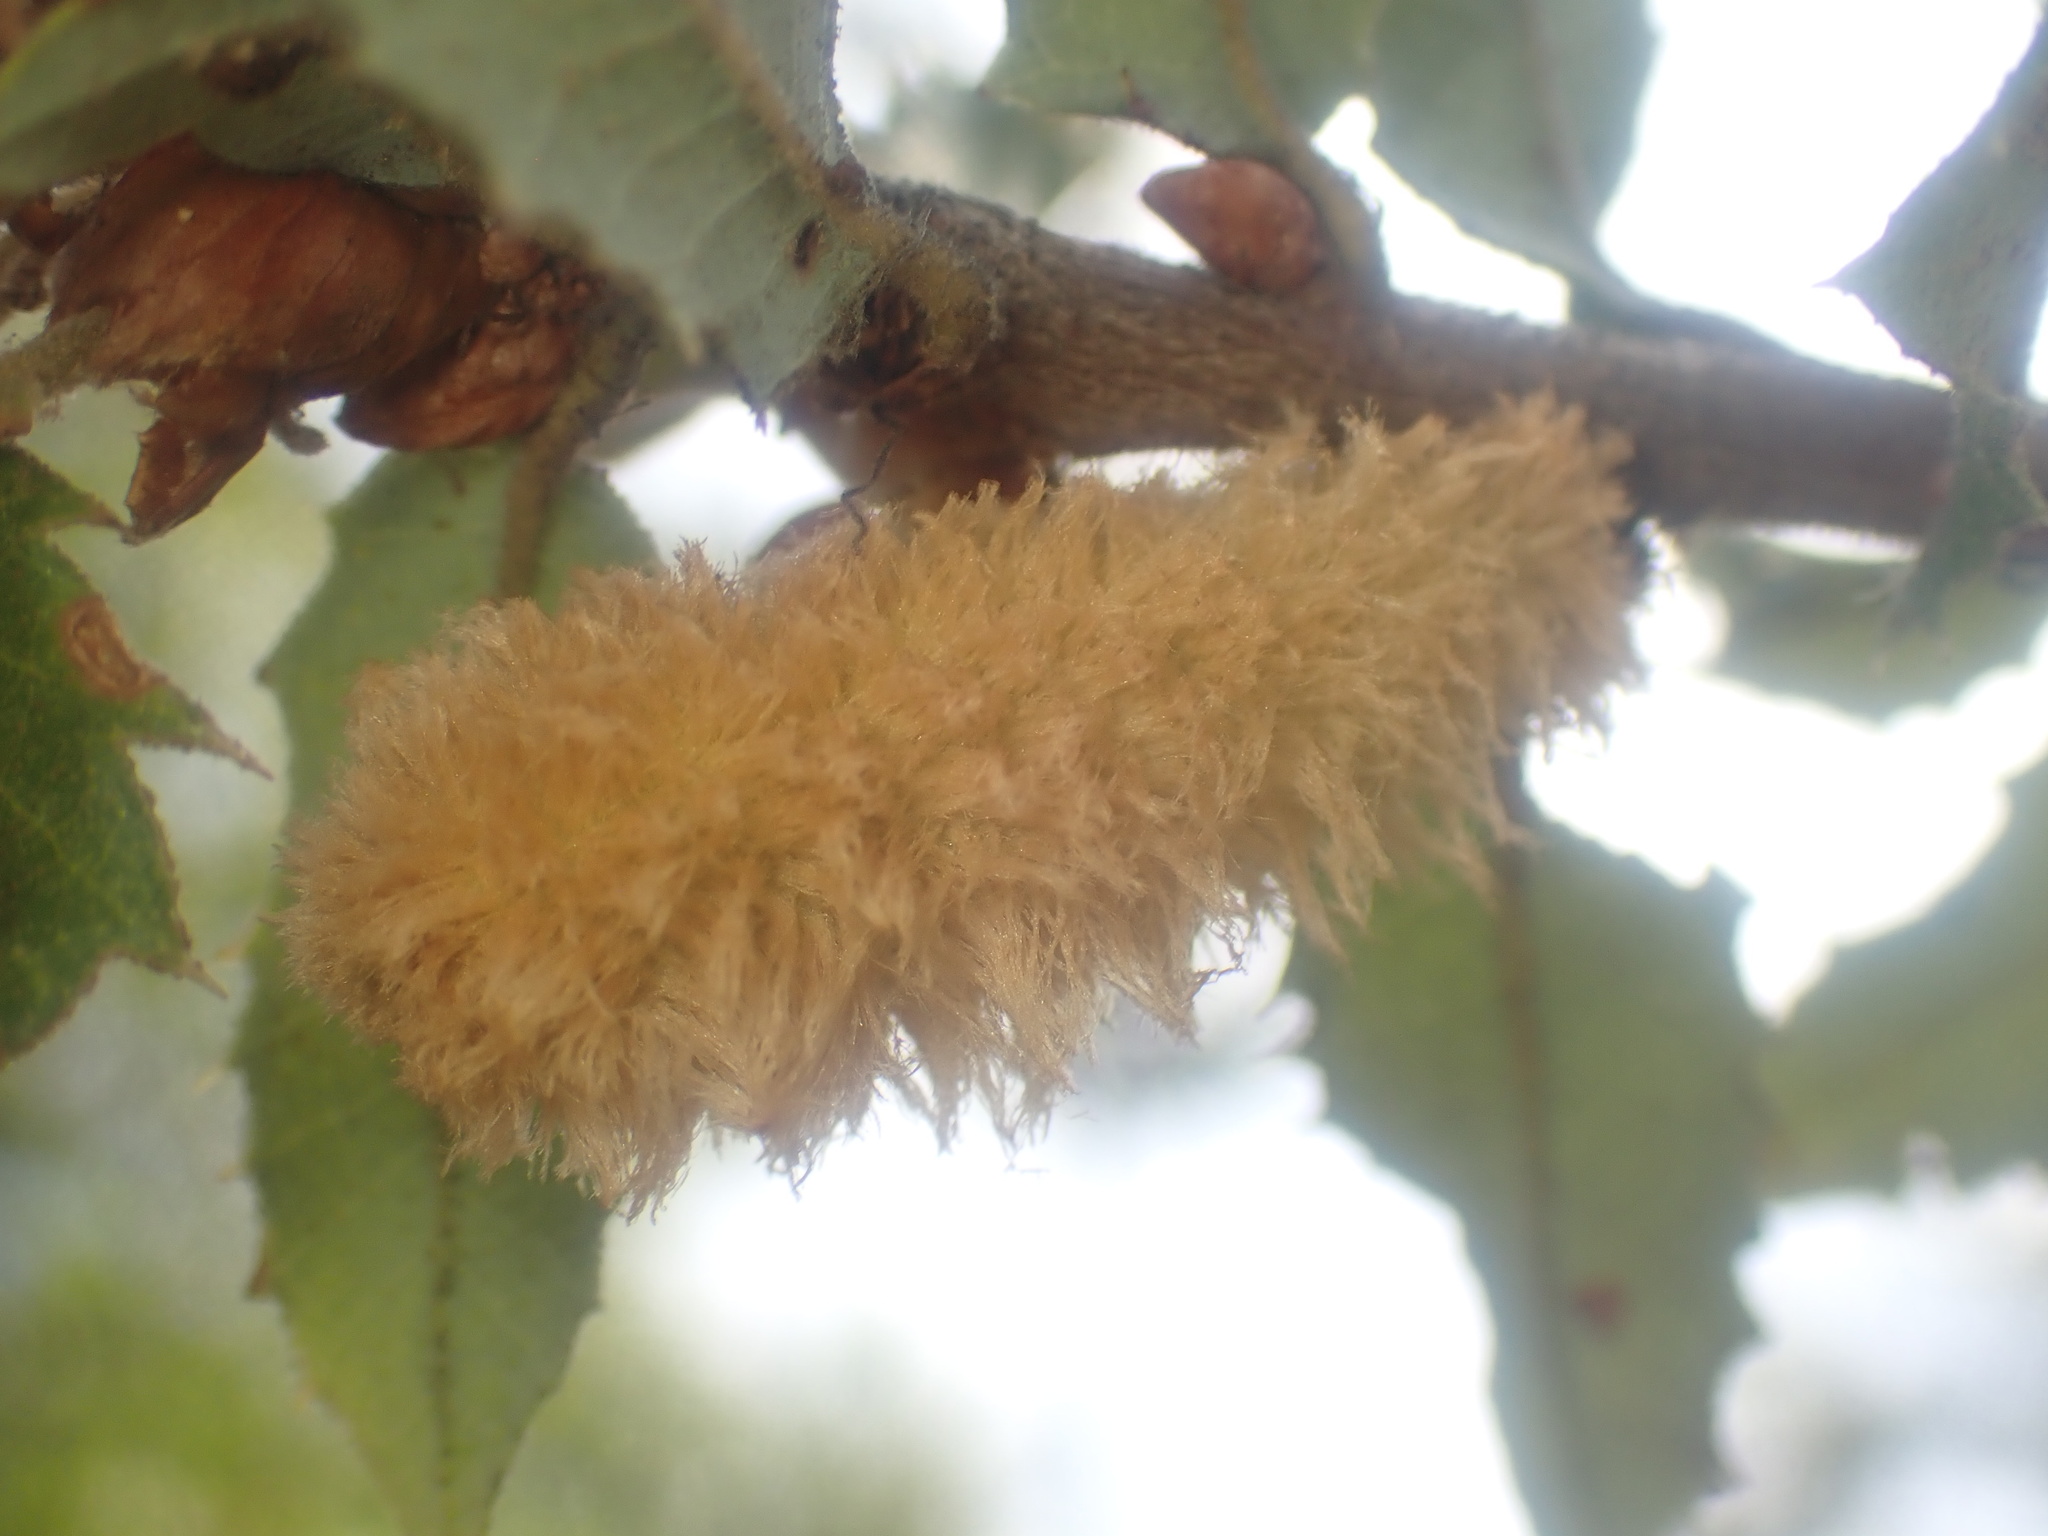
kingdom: Animalia
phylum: Arthropoda
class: Insecta
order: Hymenoptera
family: Cynipidae
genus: Heteroecus
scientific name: Heteroecus
